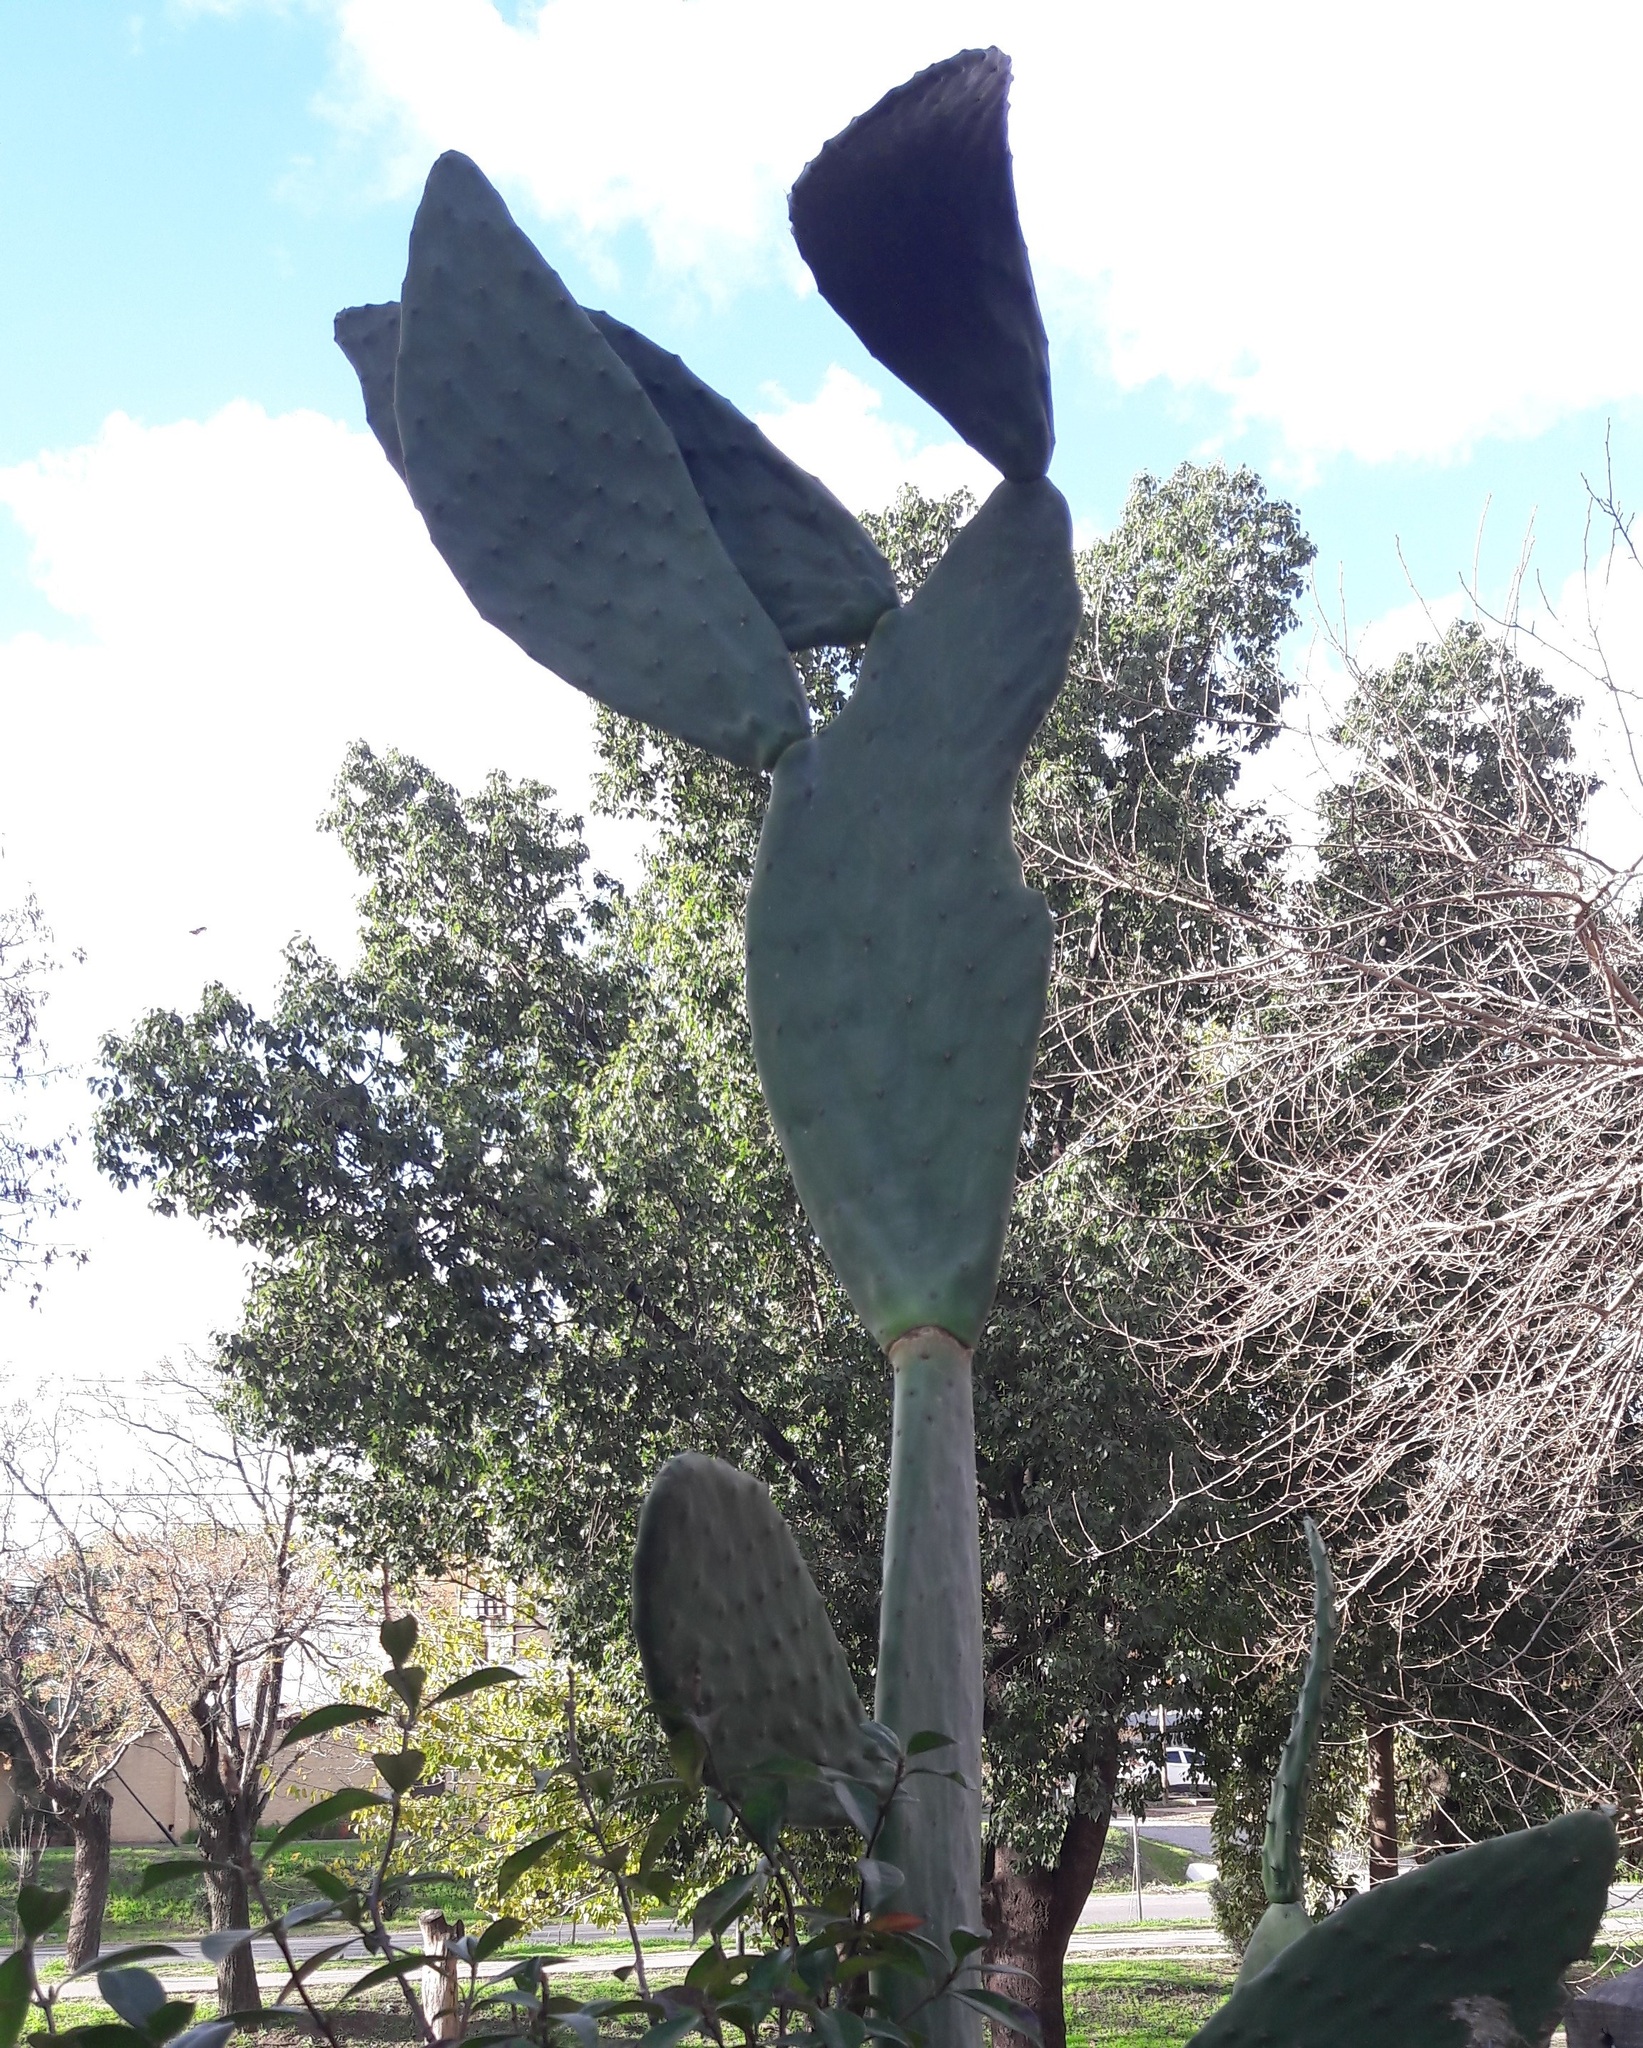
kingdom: Plantae
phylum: Tracheophyta
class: Magnoliopsida
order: Caryophyllales
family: Cactaceae
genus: Opuntia
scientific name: Opuntia ficus-indica
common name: Barbary fig
